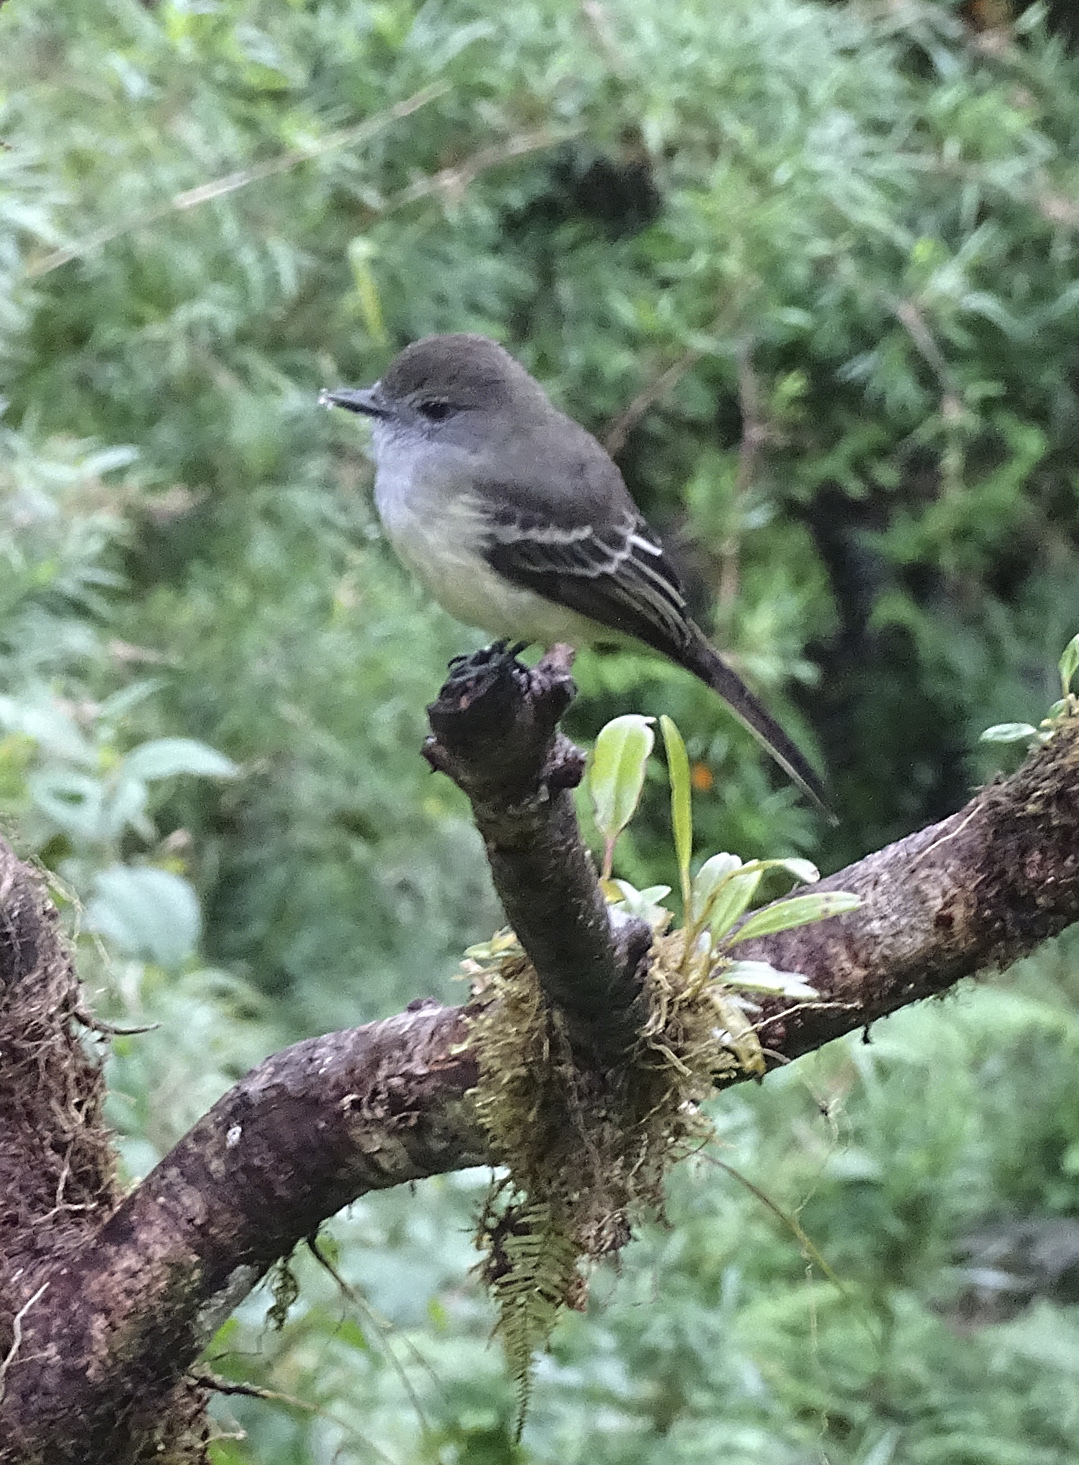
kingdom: Animalia
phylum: Chordata
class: Aves
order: Passeriformes
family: Tyrannidae
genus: Myiarchus
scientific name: Myiarchus cephalotes
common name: Pale-edged flycatcher
